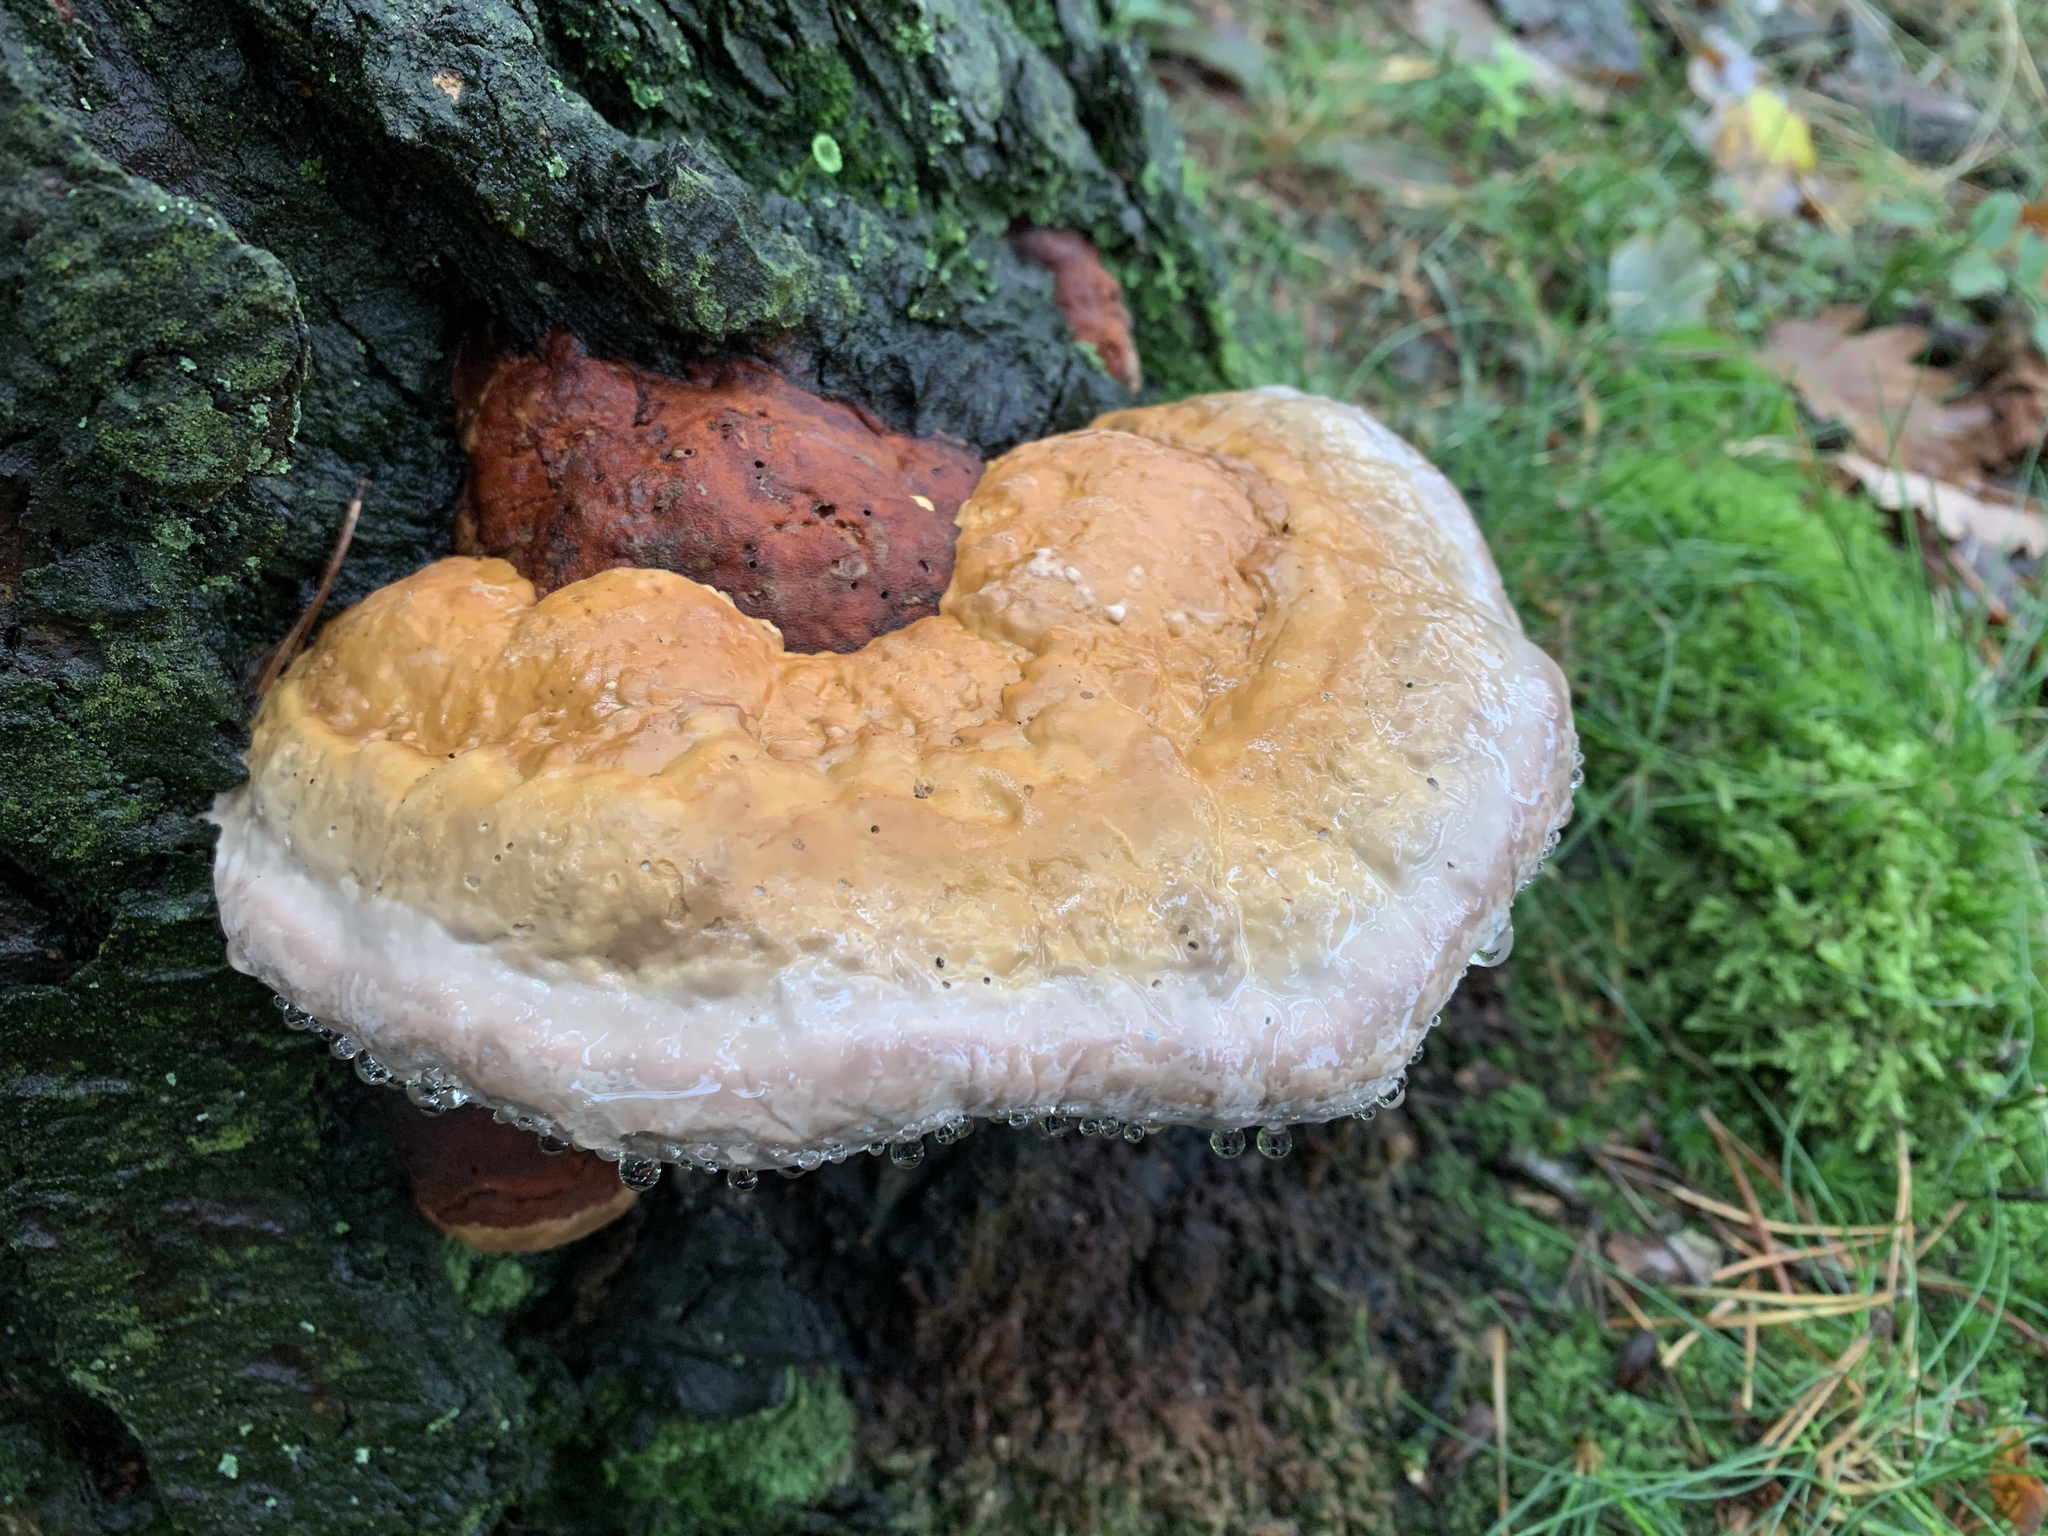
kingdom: Fungi
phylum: Basidiomycota
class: Agaricomycetes
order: Polyporales
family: Fomitopsidaceae
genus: Fomitopsis
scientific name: Fomitopsis pinicola
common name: Red-belted bracket
